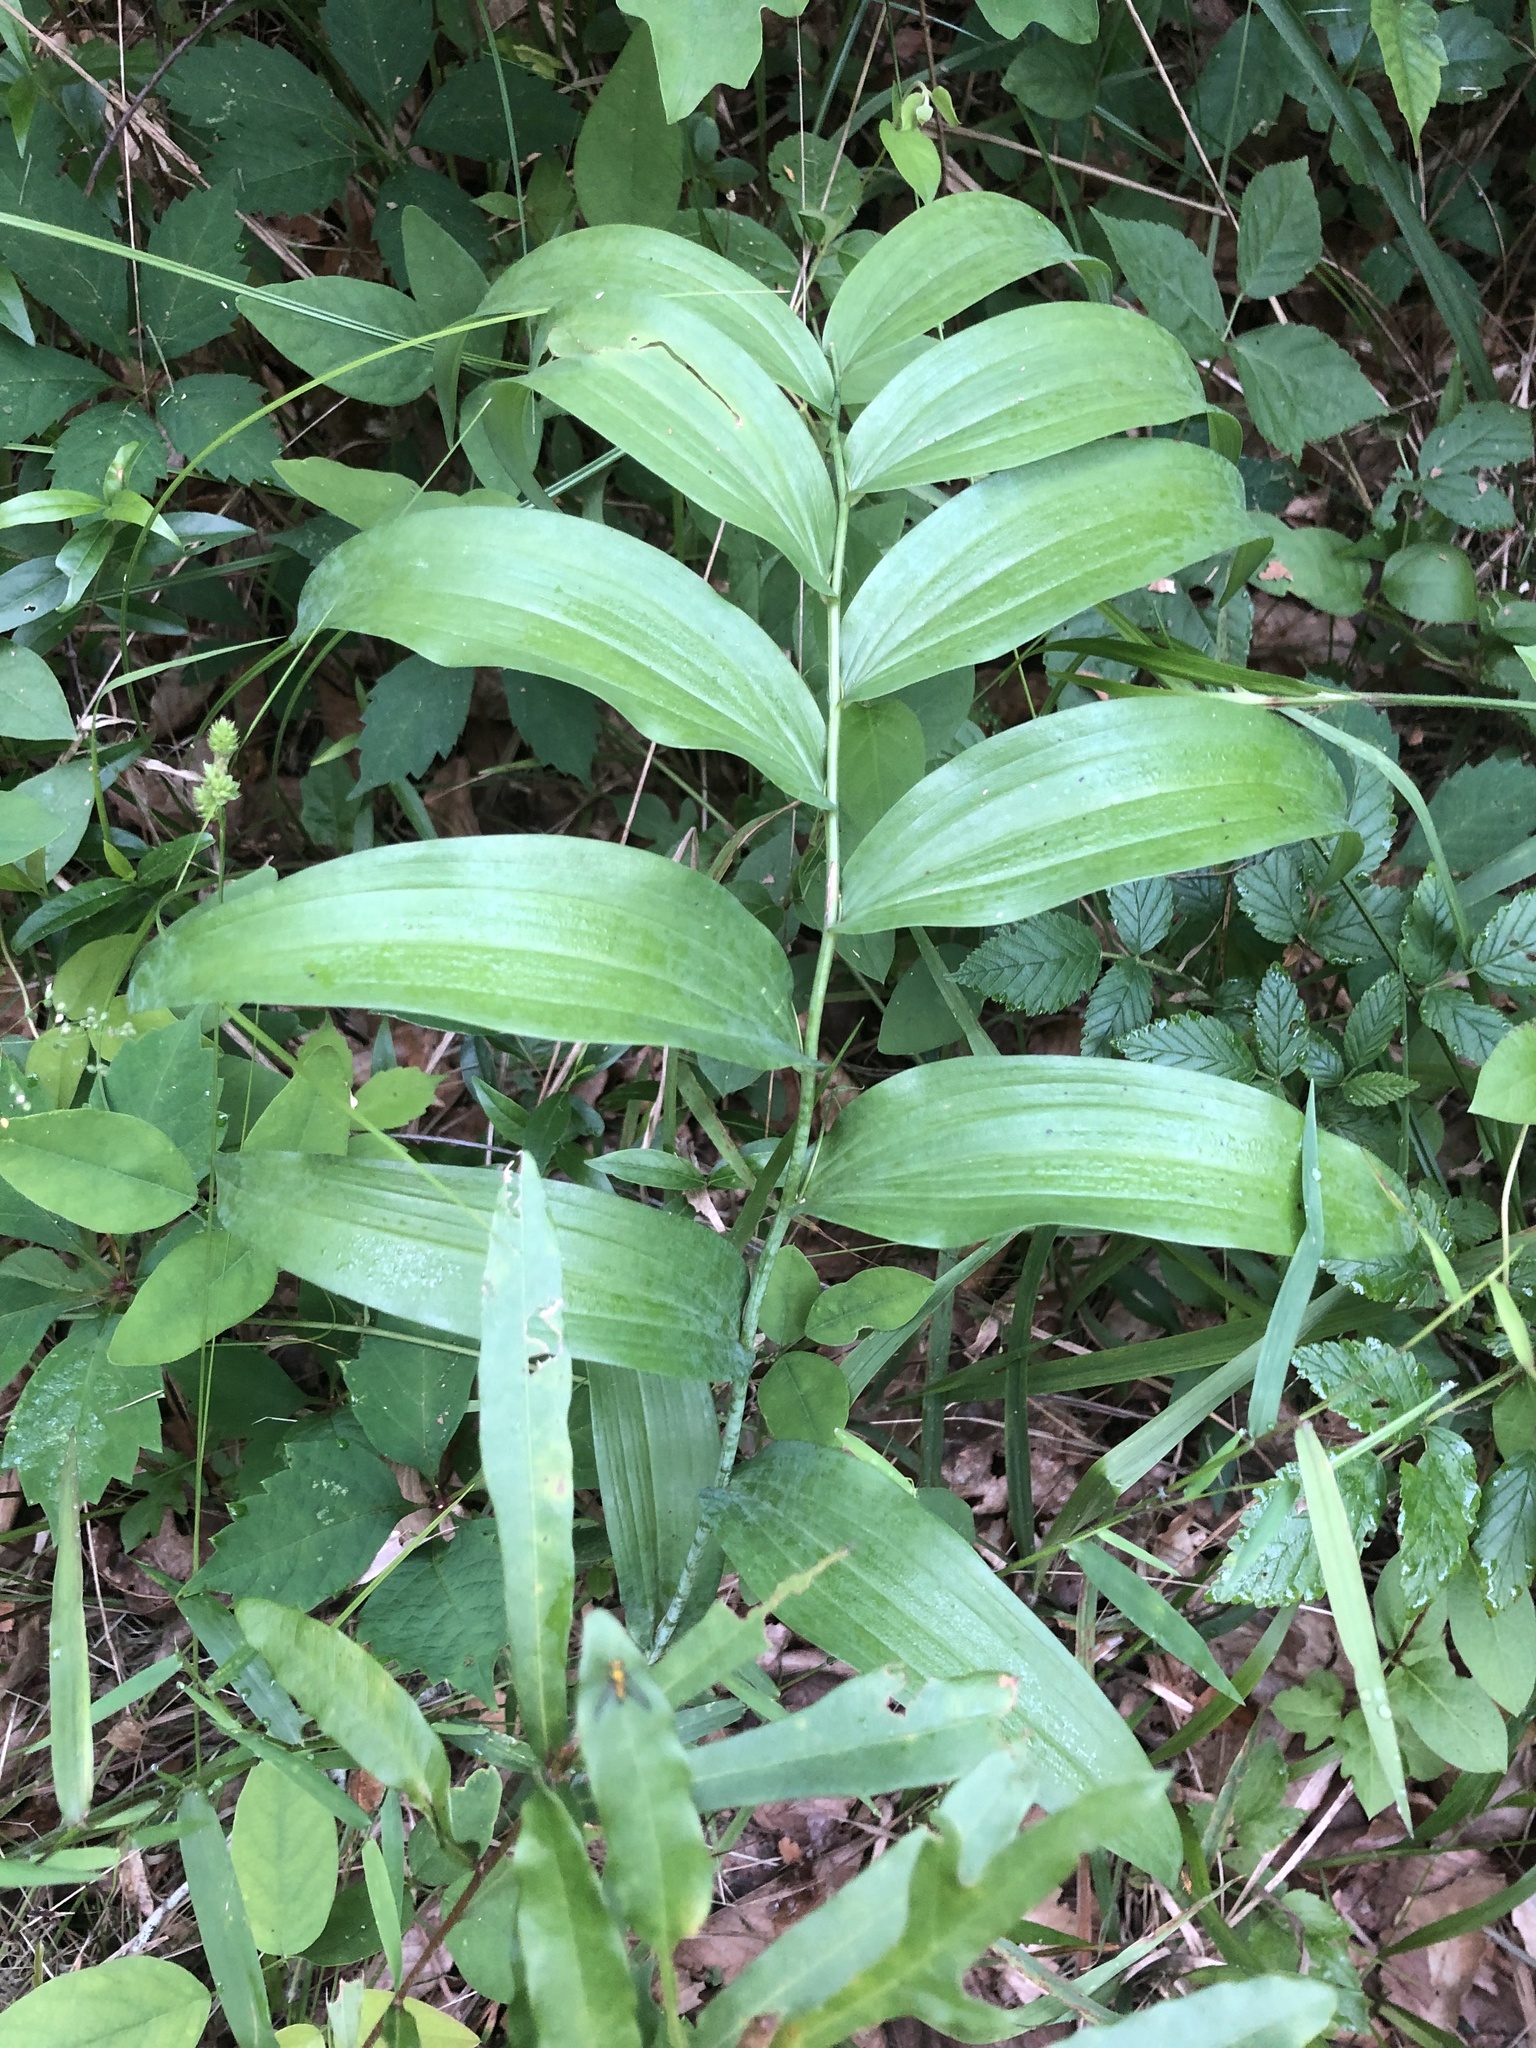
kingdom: Plantae
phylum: Tracheophyta
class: Liliopsida
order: Asparagales
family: Asparagaceae
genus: Polygonatum
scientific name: Polygonatum biflorum
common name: American solomon's-seal
